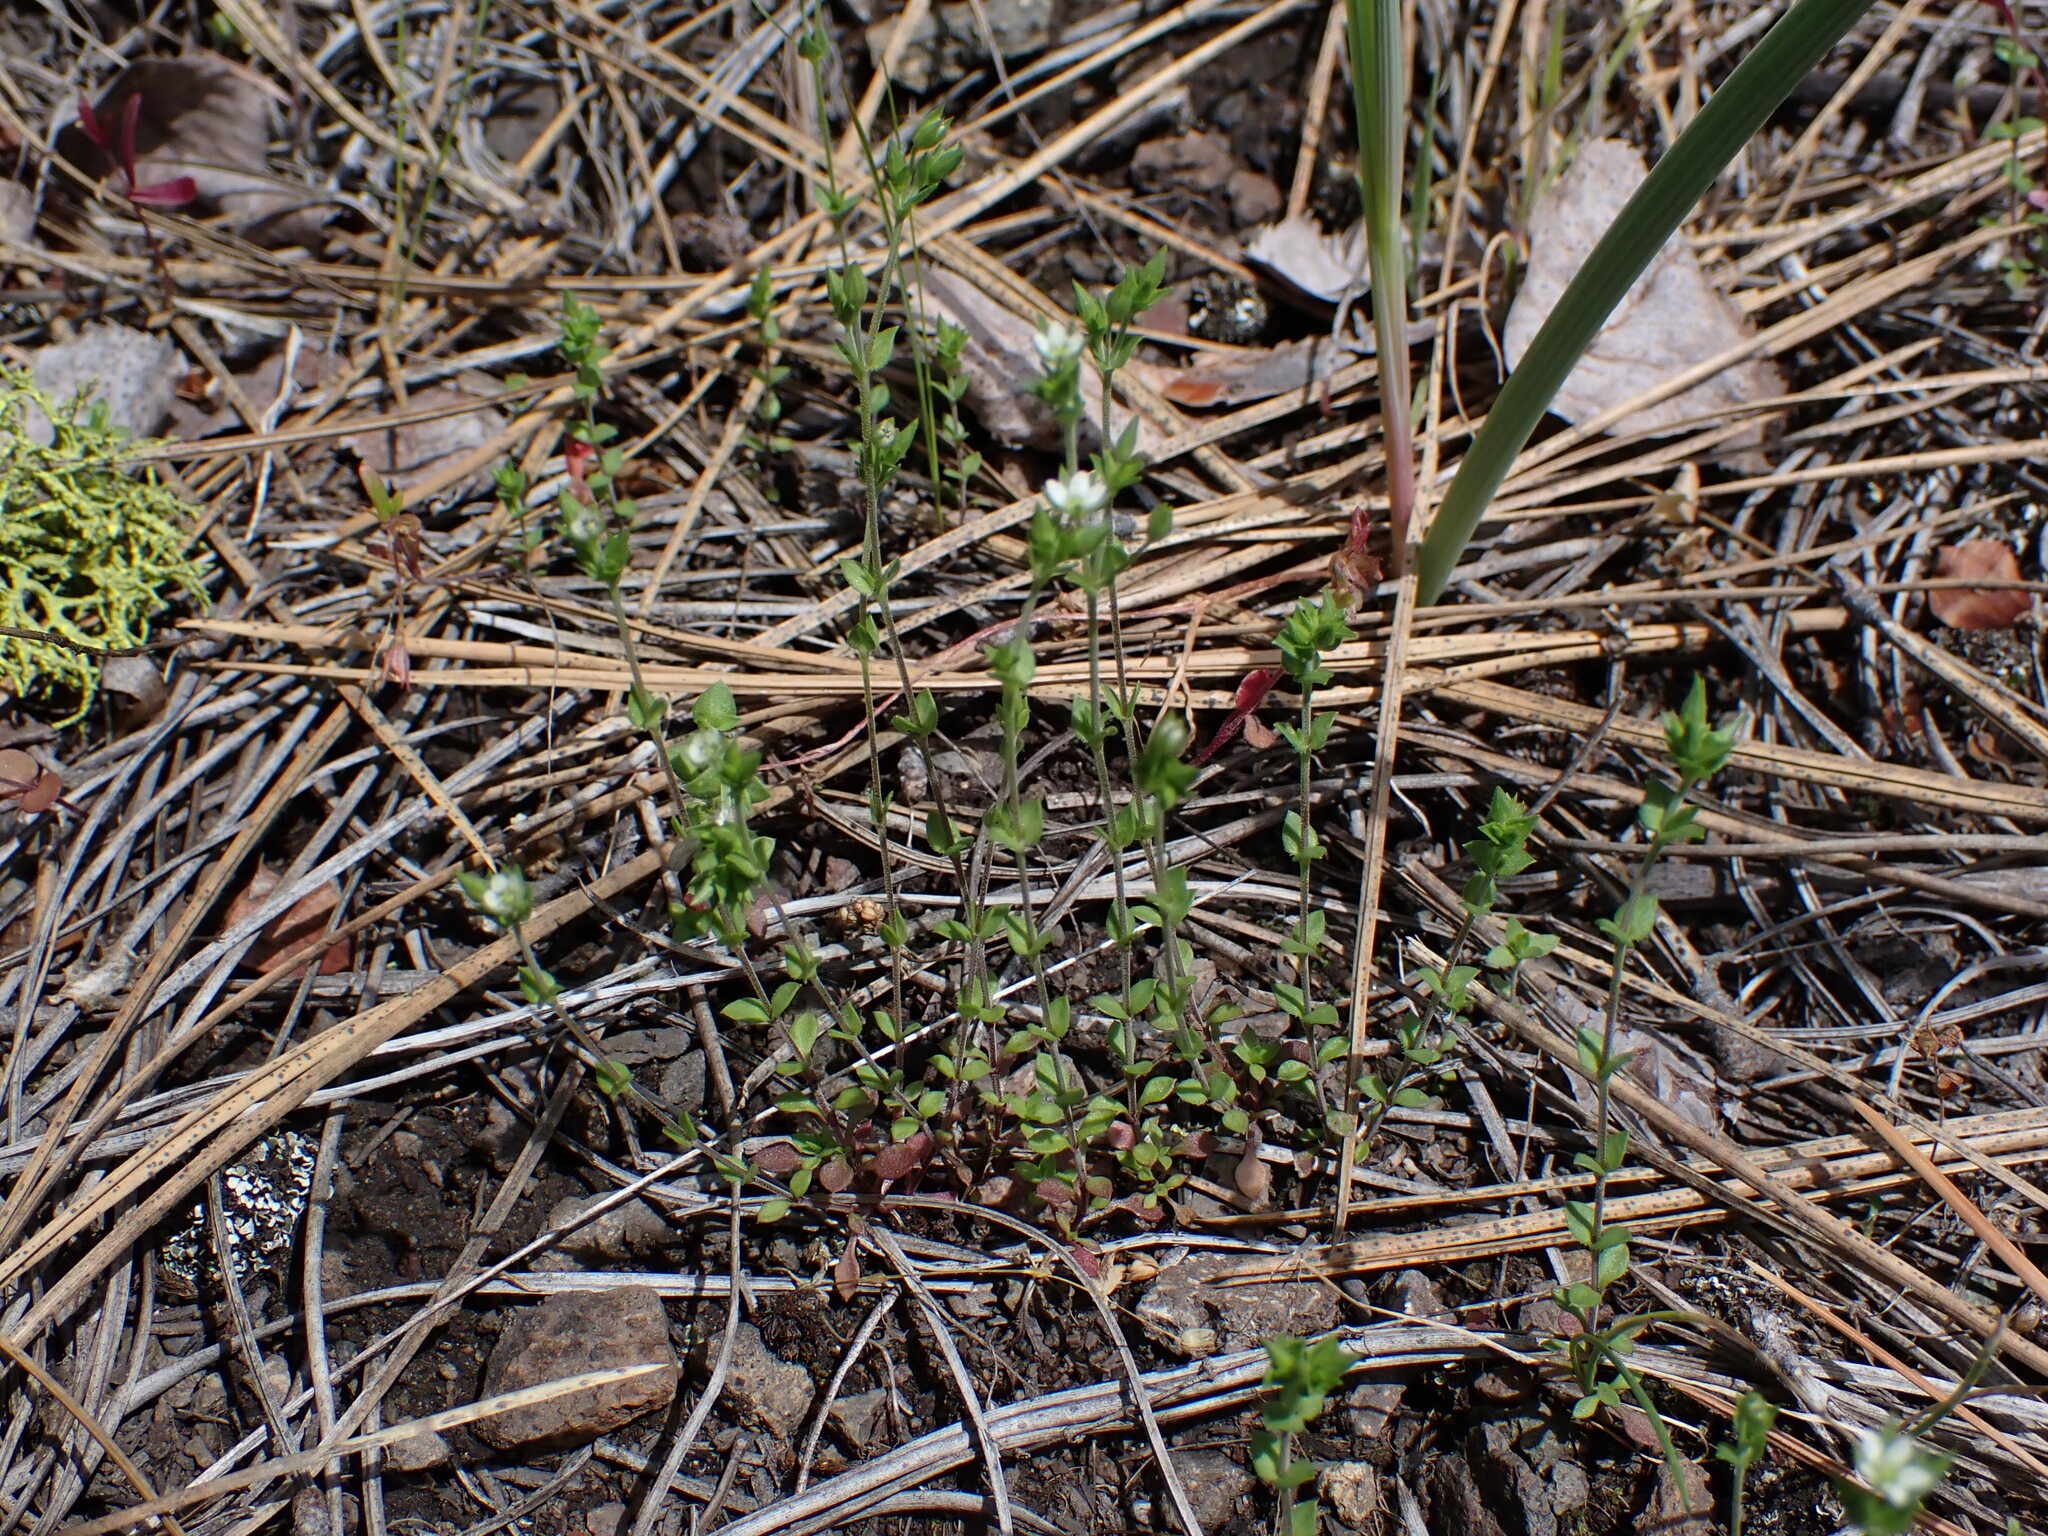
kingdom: Plantae
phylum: Tracheophyta
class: Magnoliopsida
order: Caryophyllales
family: Caryophyllaceae
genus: Arenaria
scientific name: Arenaria serpyllifolia
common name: Thyme-leaved sandwort
